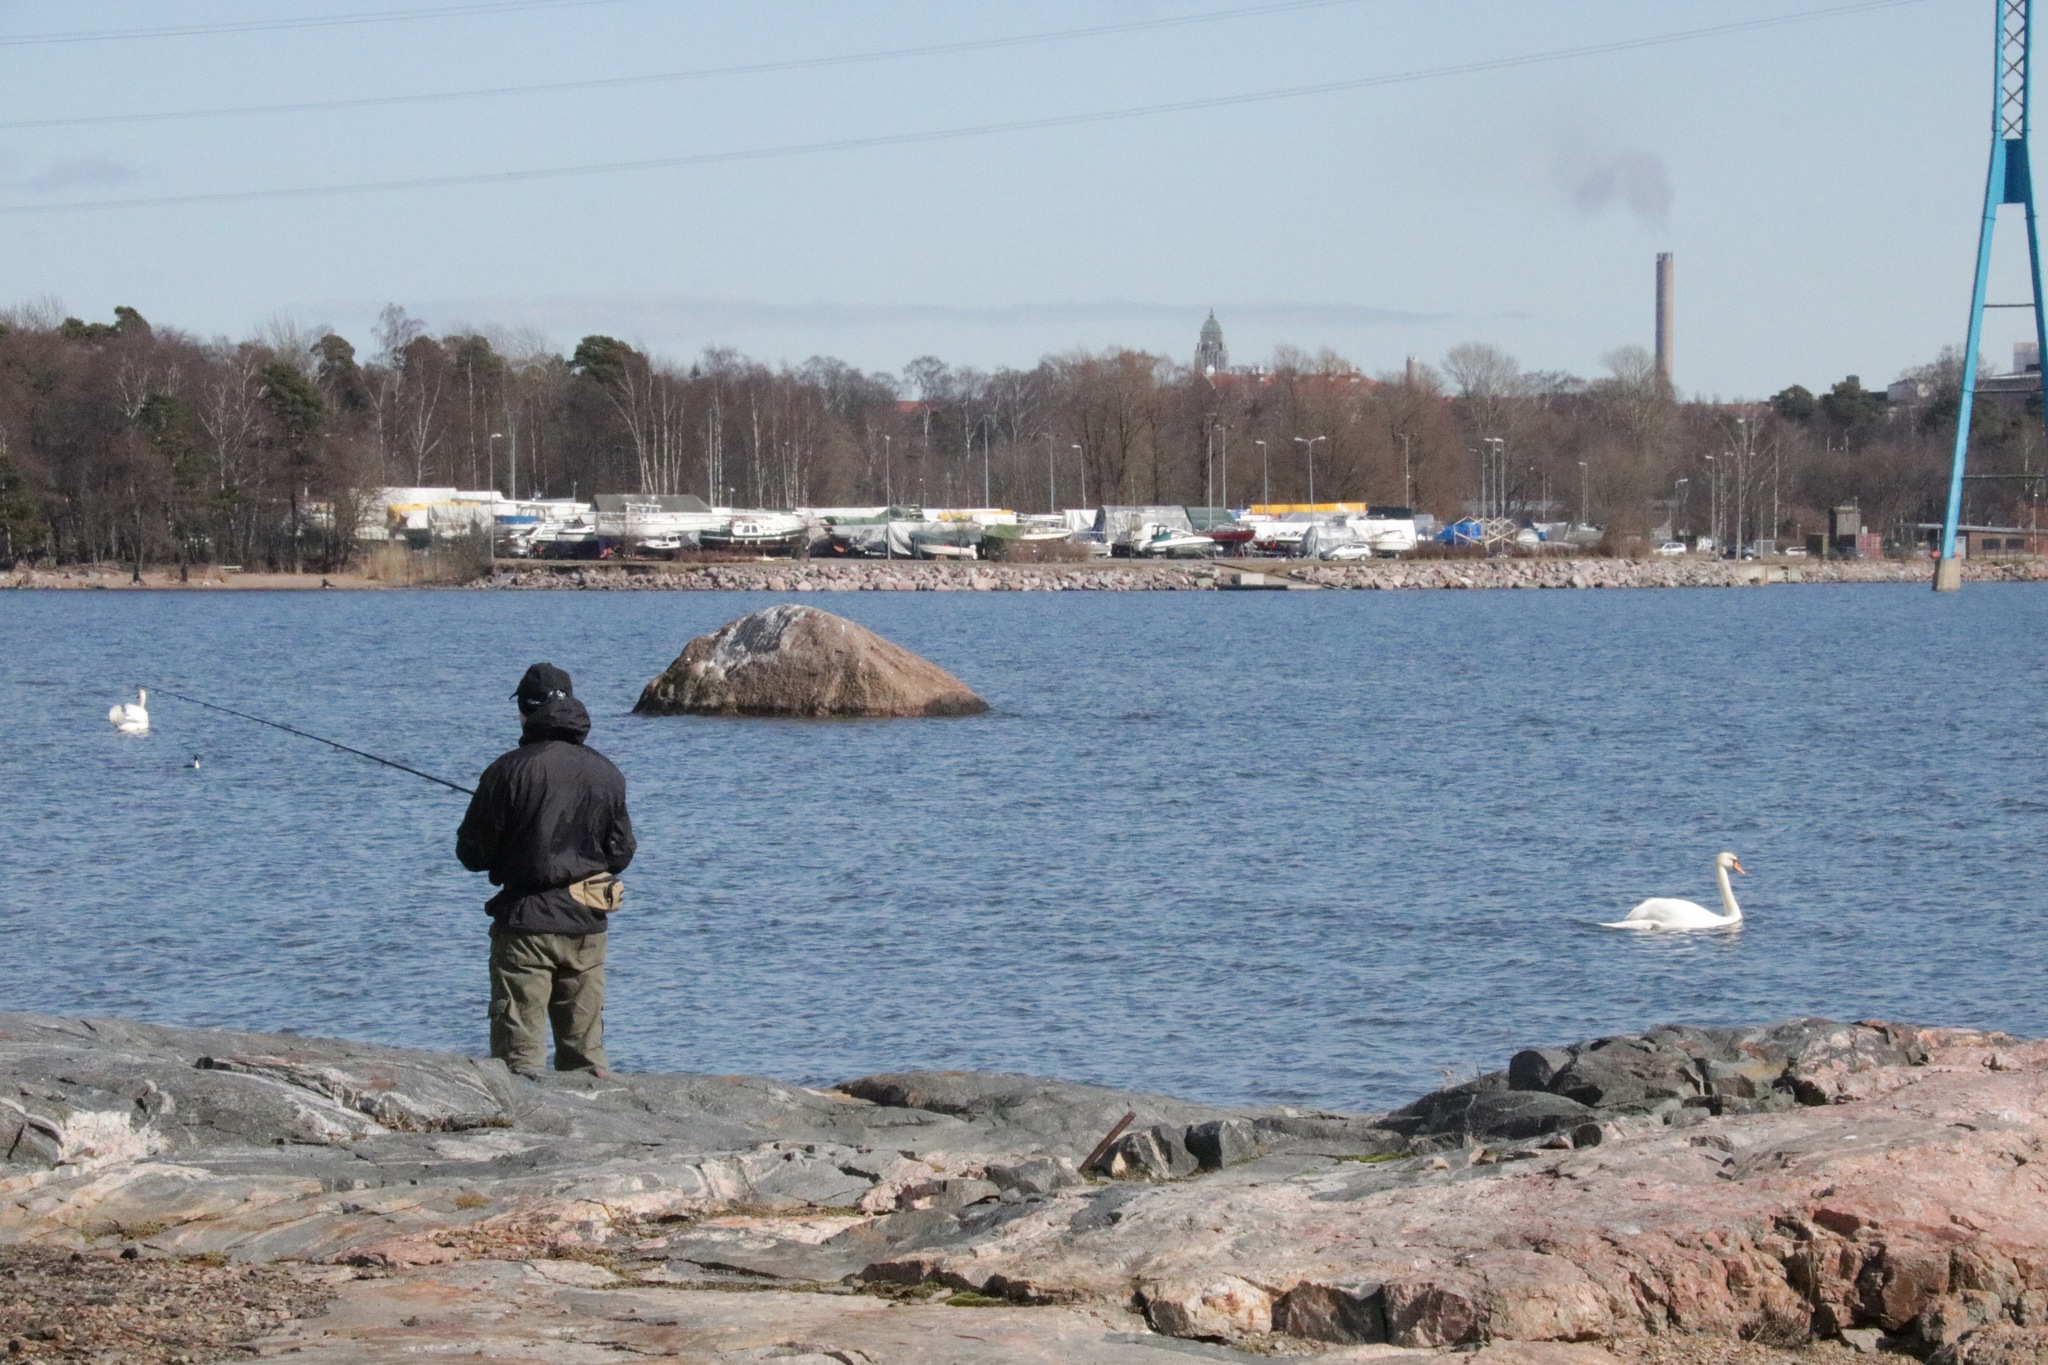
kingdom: Animalia
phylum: Chordata
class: Aves
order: Anseriformes
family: Anatidae
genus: Cygnus
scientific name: Cygnus olor
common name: Mute swan
